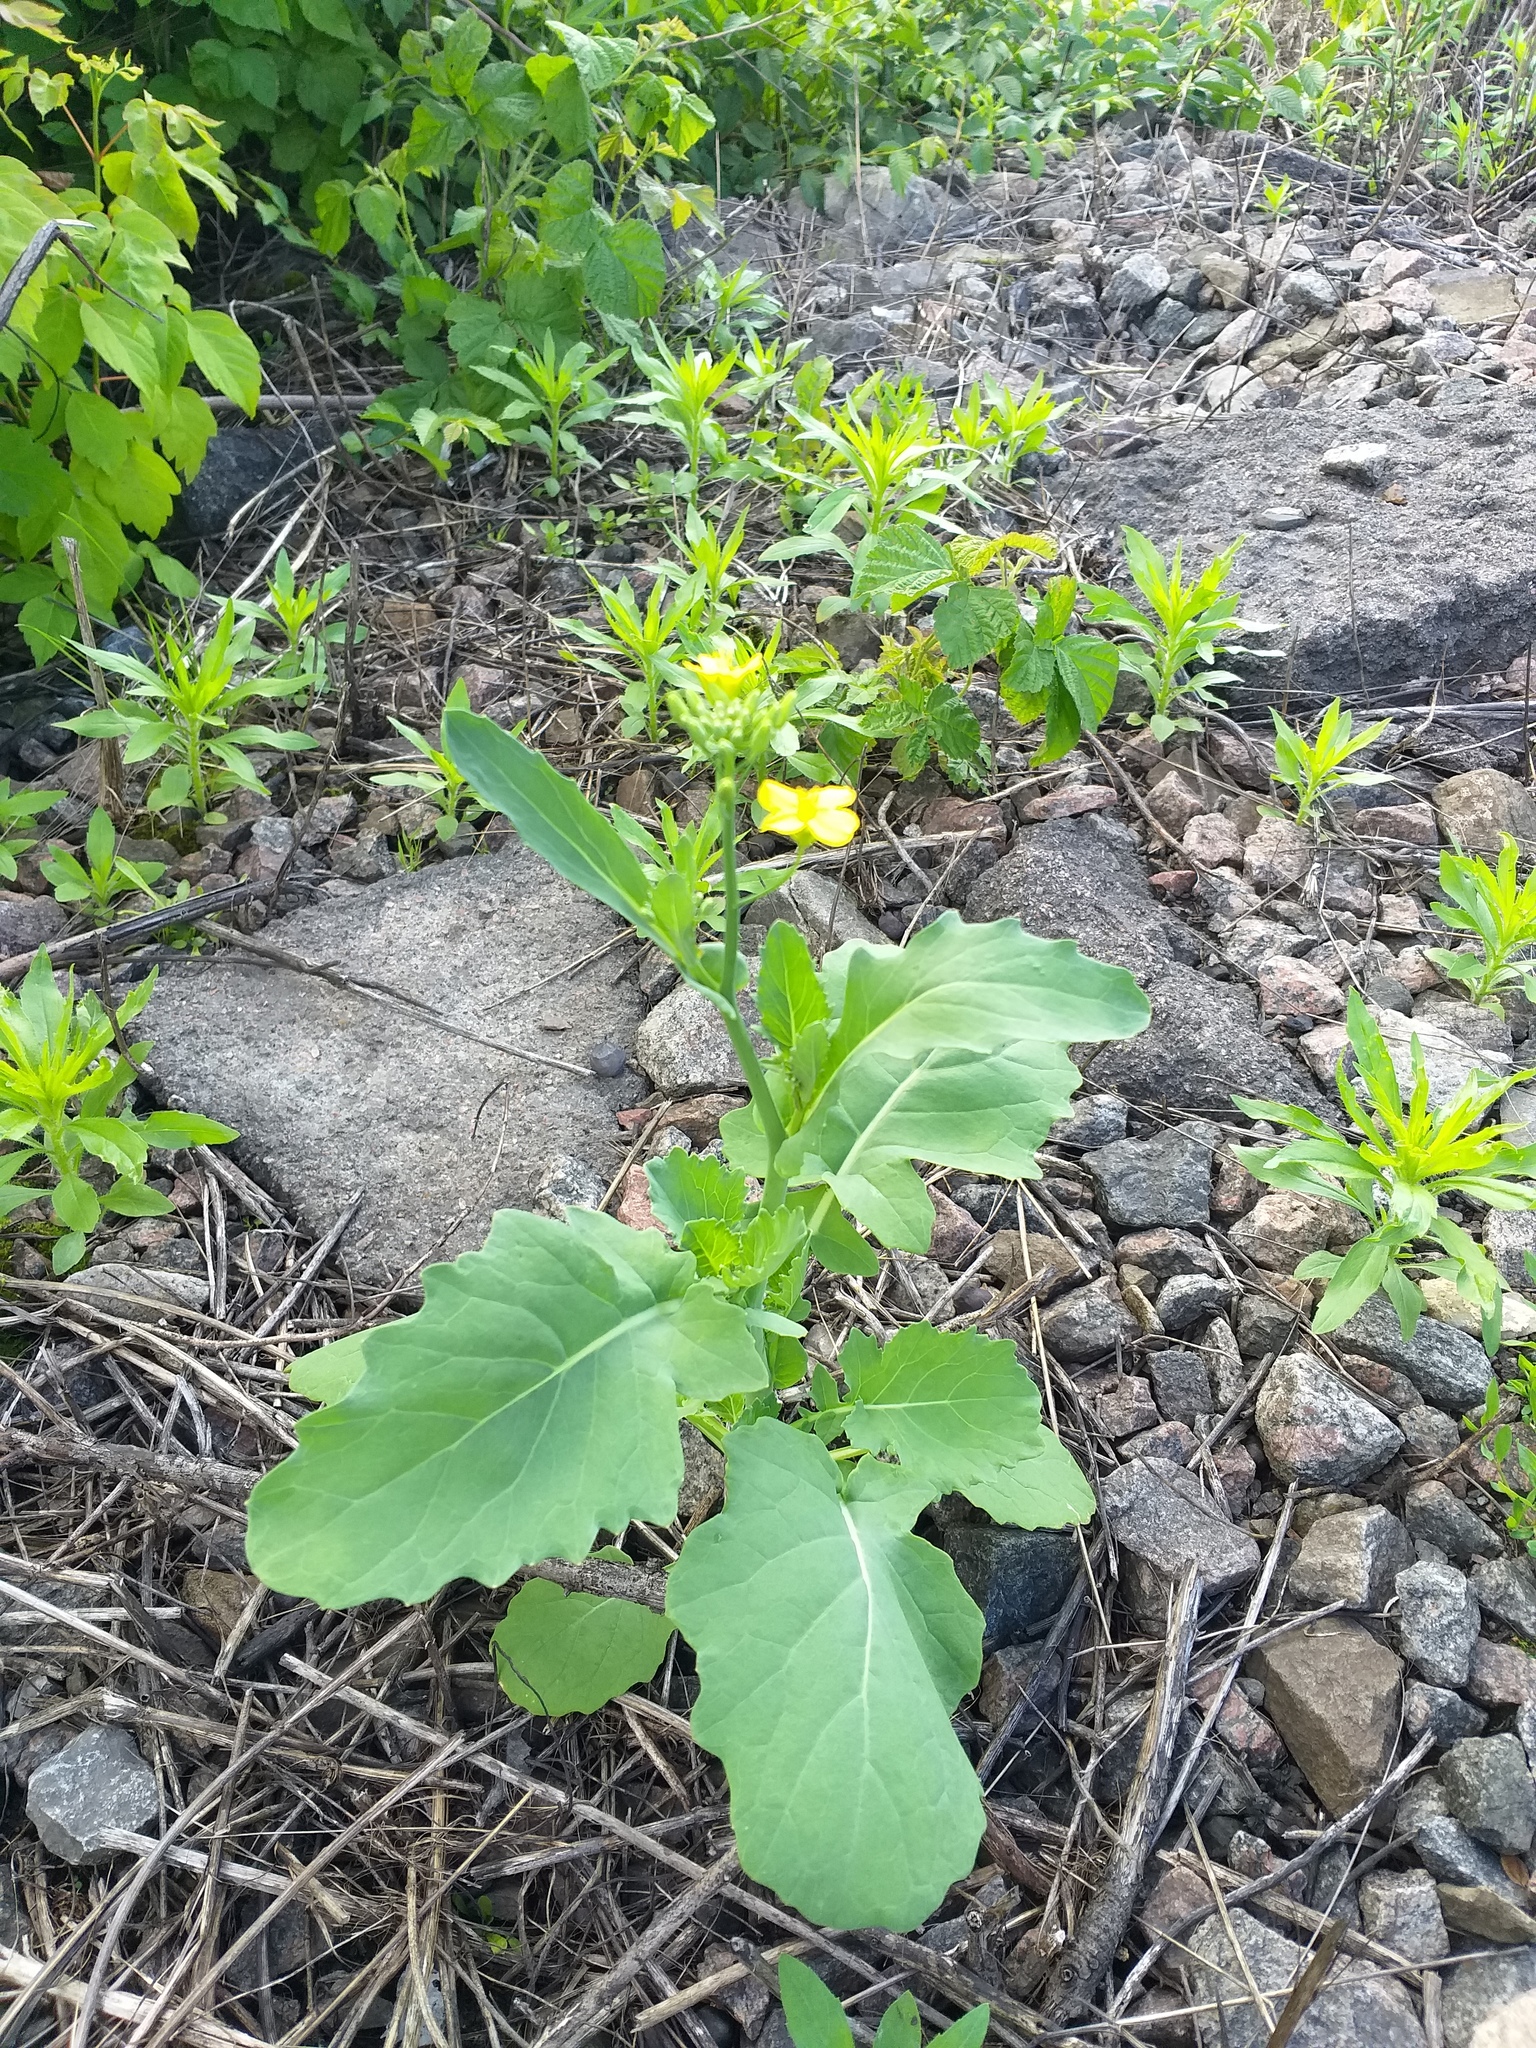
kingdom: Plantae
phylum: Tracheophyta
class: Magnoliopsida
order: Brassicales
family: Brassicaceae
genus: Brassica
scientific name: Brassica napus
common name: Rape
